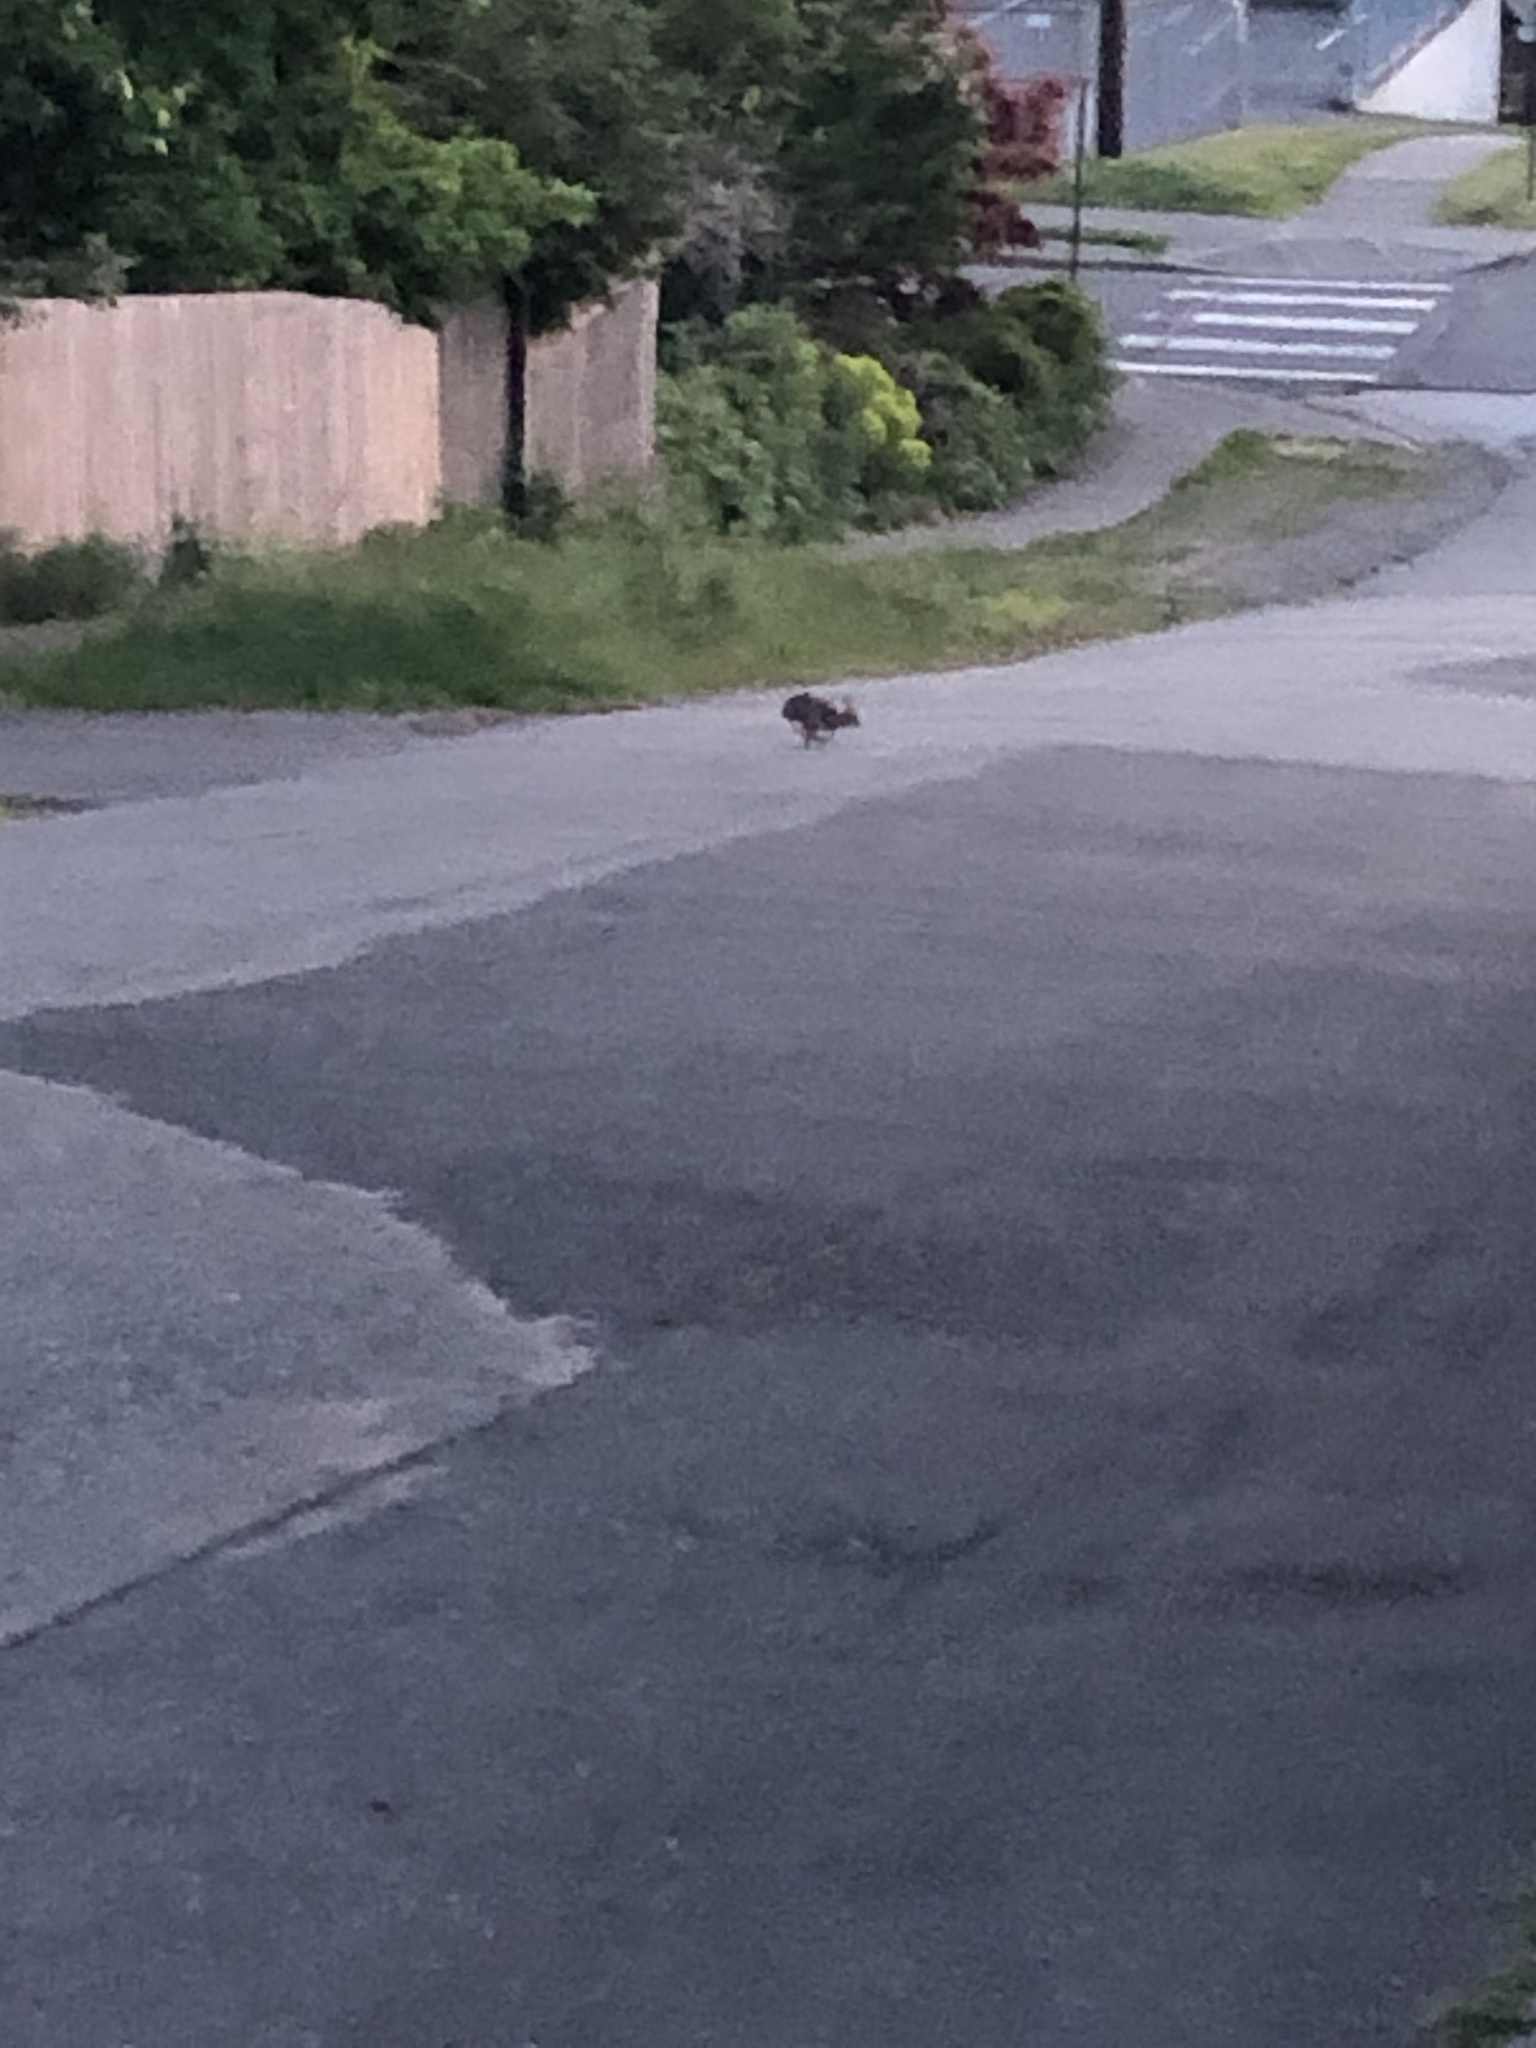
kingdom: Animalia
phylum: Chordata
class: Mammalia
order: Lagomorpha
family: Leporidae
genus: Sylvilagus
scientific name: Sylvilagus floridanus
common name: Eastern cottontail
